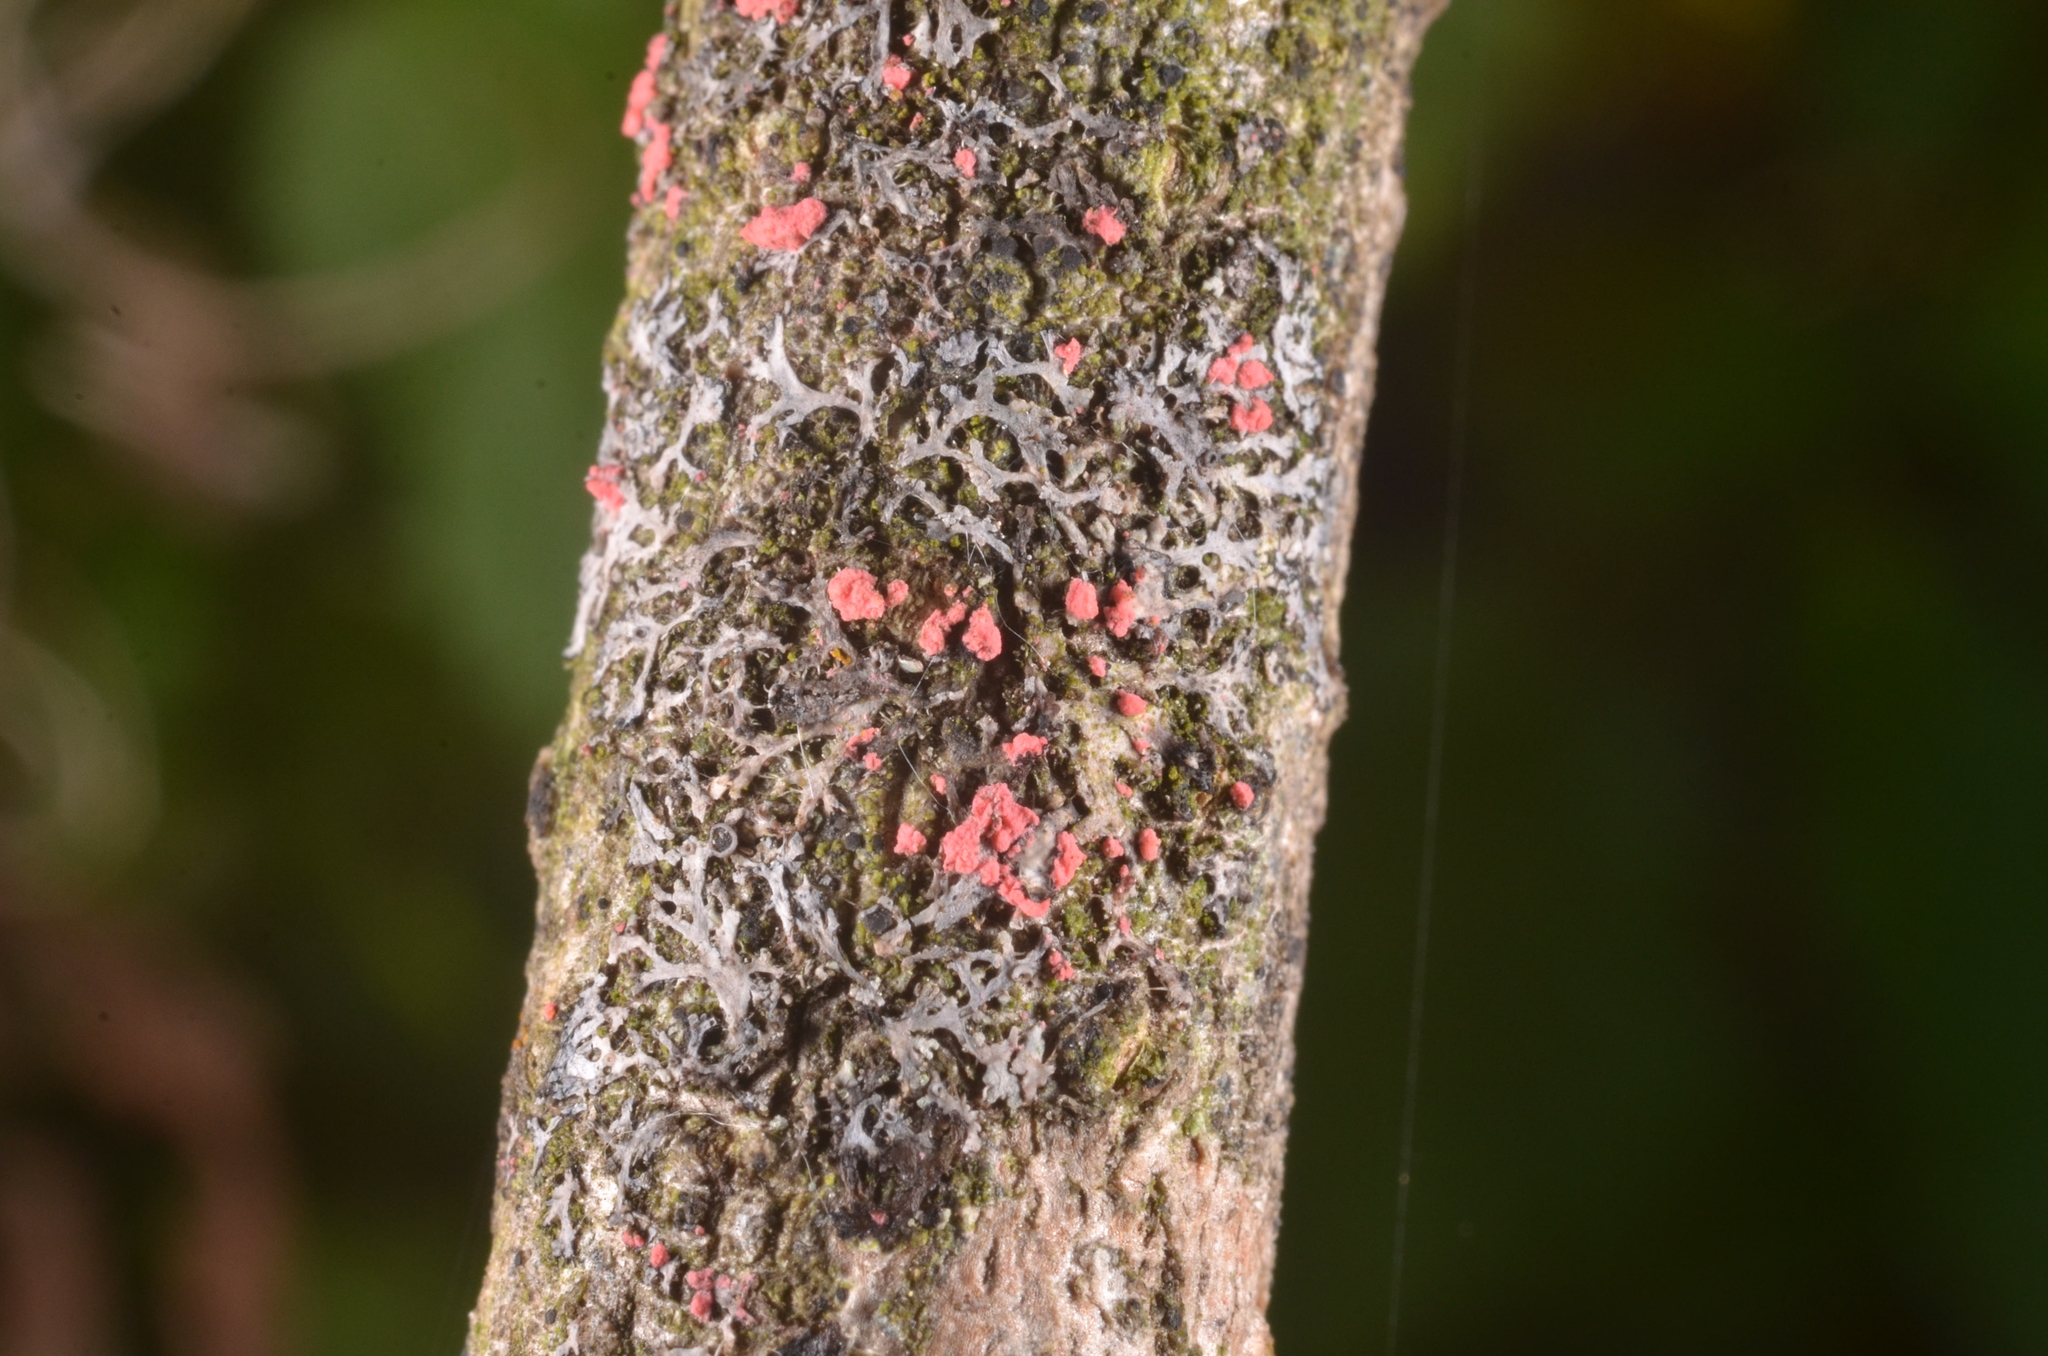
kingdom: Fungi
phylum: Ascomycota
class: Sordariomycetes
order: Hypocreales
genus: Illosporiopsis
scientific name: Illosporiopsis christiansenii
